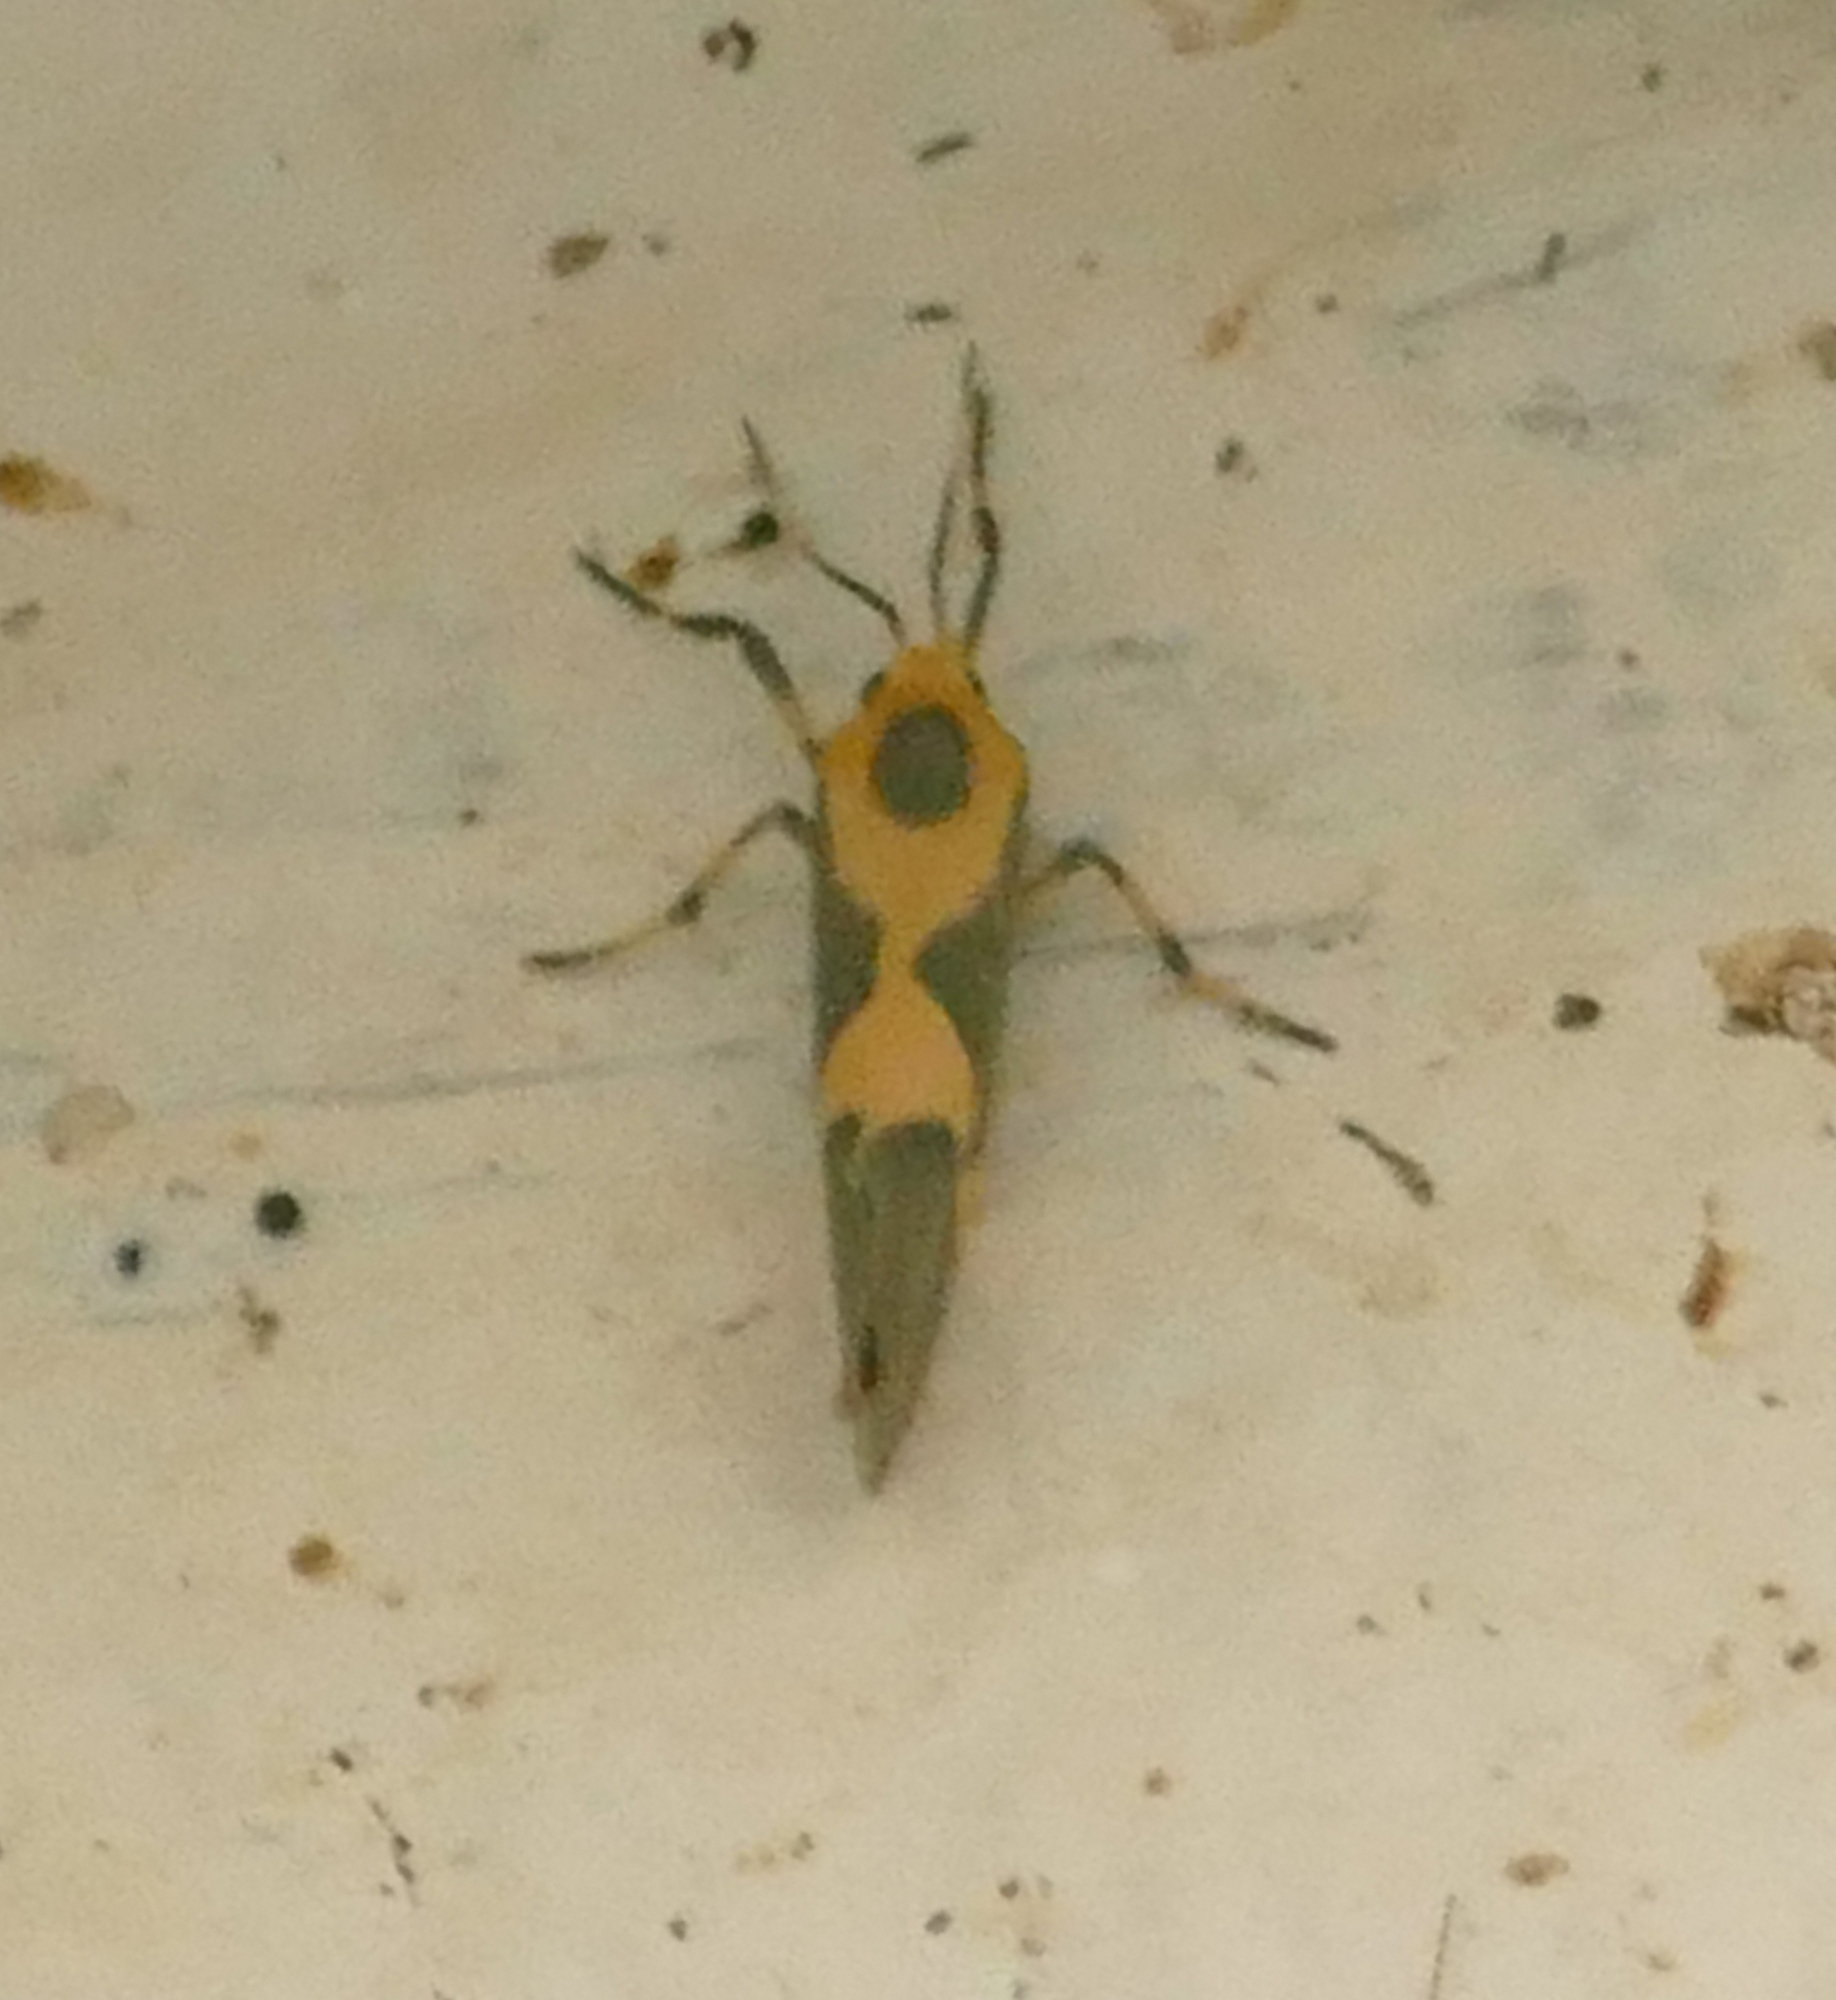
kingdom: Animalia
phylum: Arthropoda
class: Insecta
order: Lepidoptera
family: Erebidae
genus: Cisthene
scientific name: Cisthene unifascia
